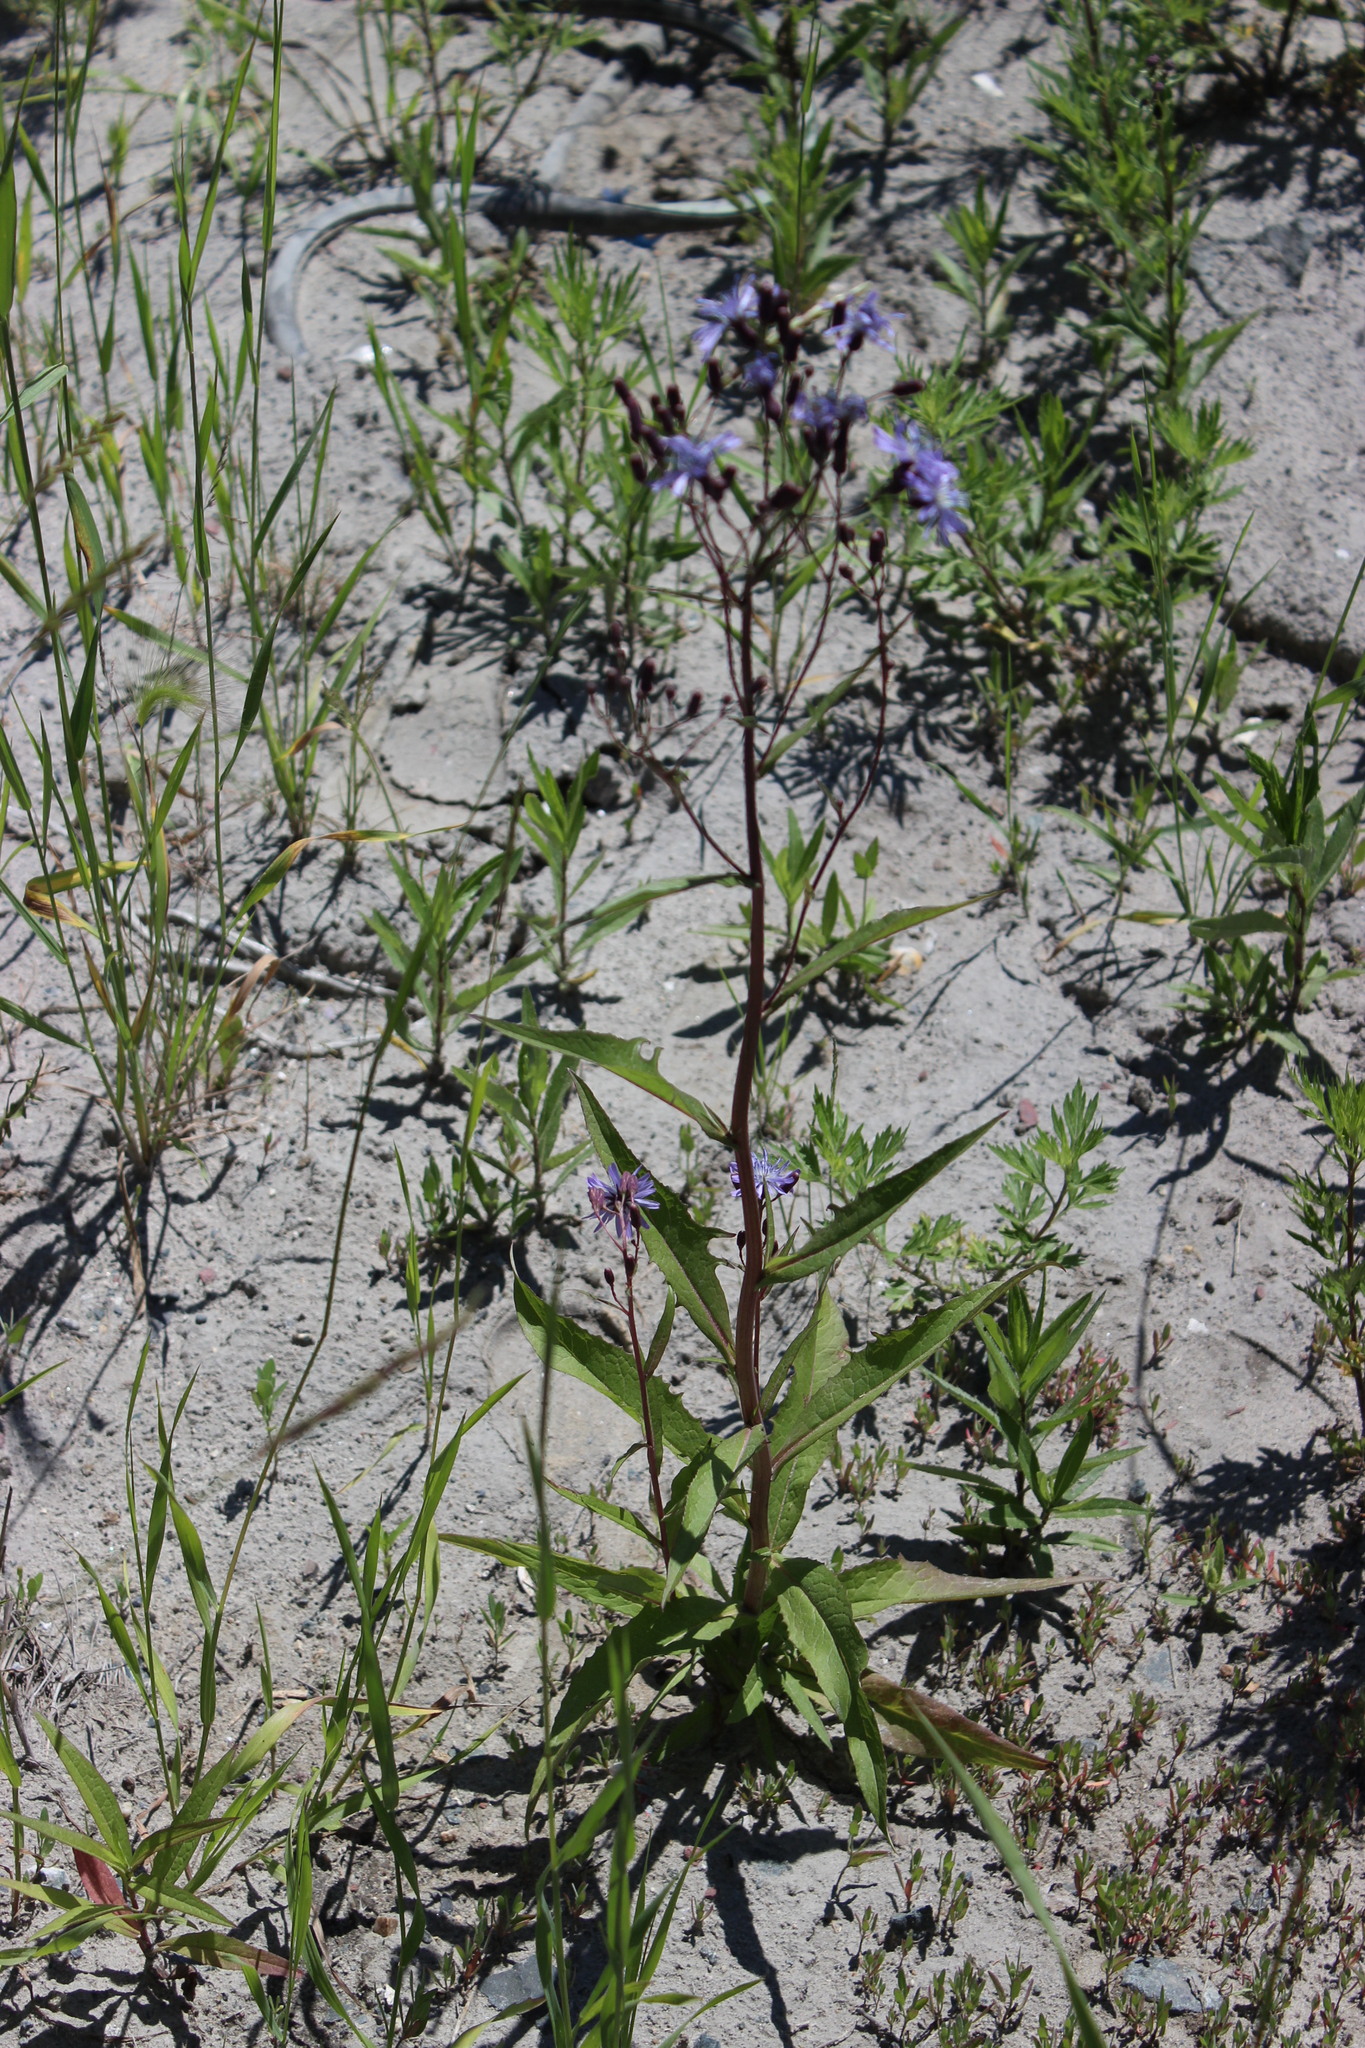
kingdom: Plantae
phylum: Tracheophyta
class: Magnoliopsida
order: Asterales
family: Asteraceae
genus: Lactuca
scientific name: Lactuca sibirica
